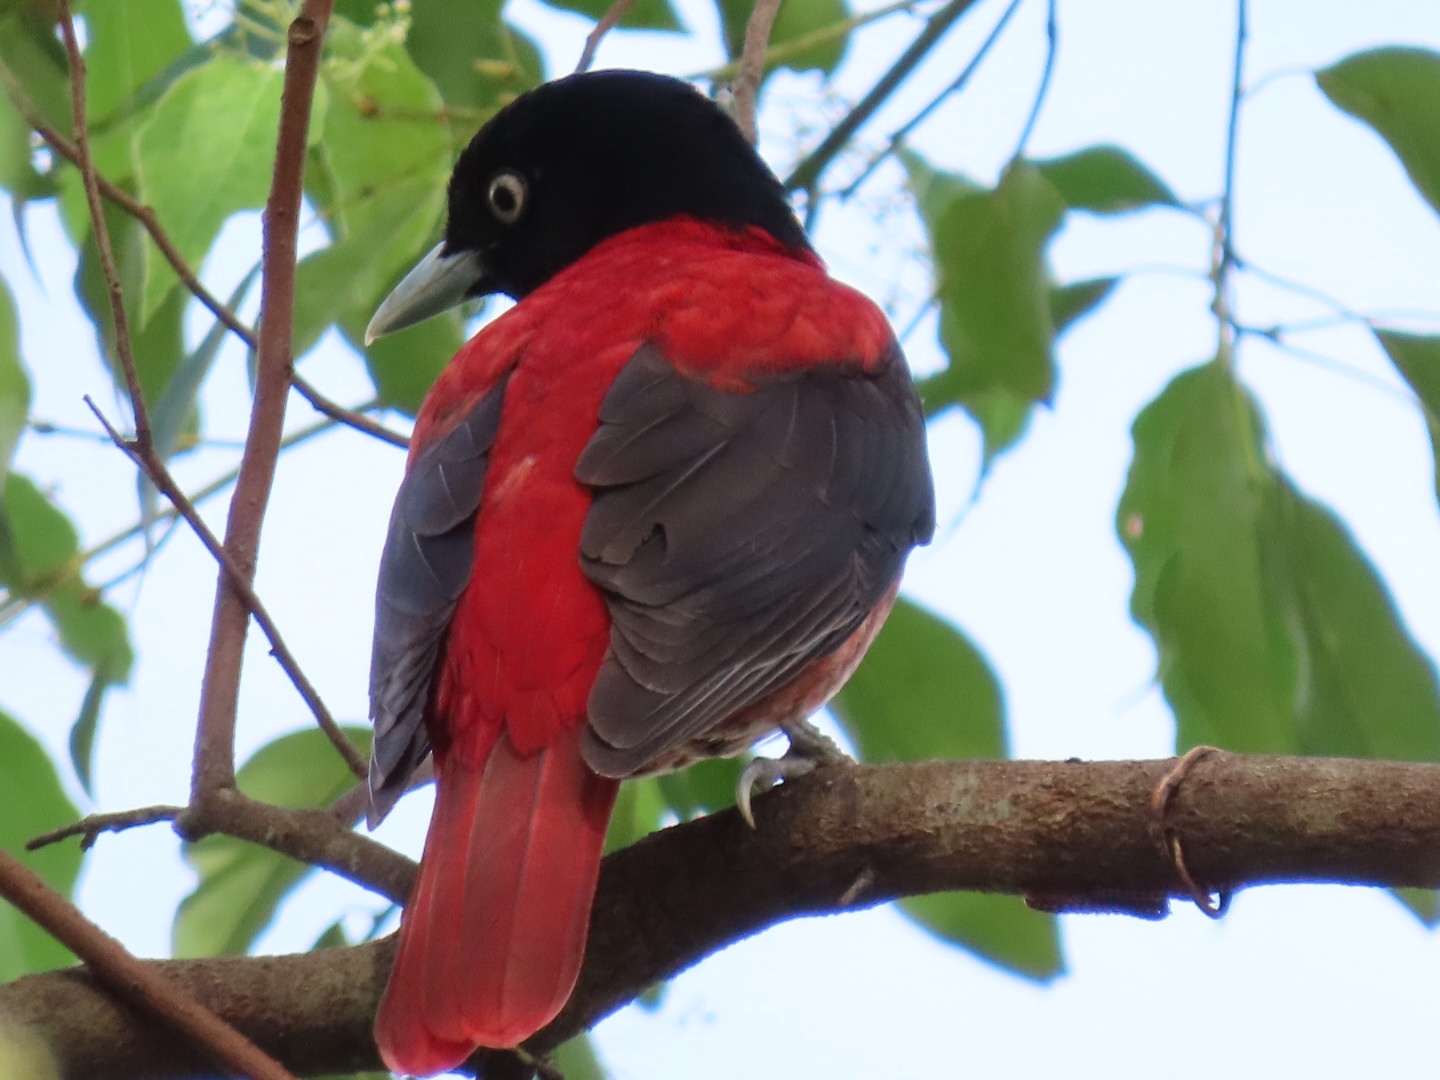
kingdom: Animalia
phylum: Chordata
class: Aves
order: Passeriformes
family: Oriolidae
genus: Oriolus
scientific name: Oriolus traillii
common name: Maroon oriole
